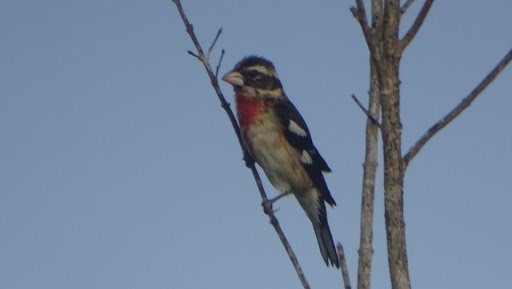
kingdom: Animalia
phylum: Chordata
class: Aves
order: Passeriformes
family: Cardinalidae
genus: Pheucticus
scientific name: Pheucticus ludovicianus
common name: Rose-breasted grosbeak
